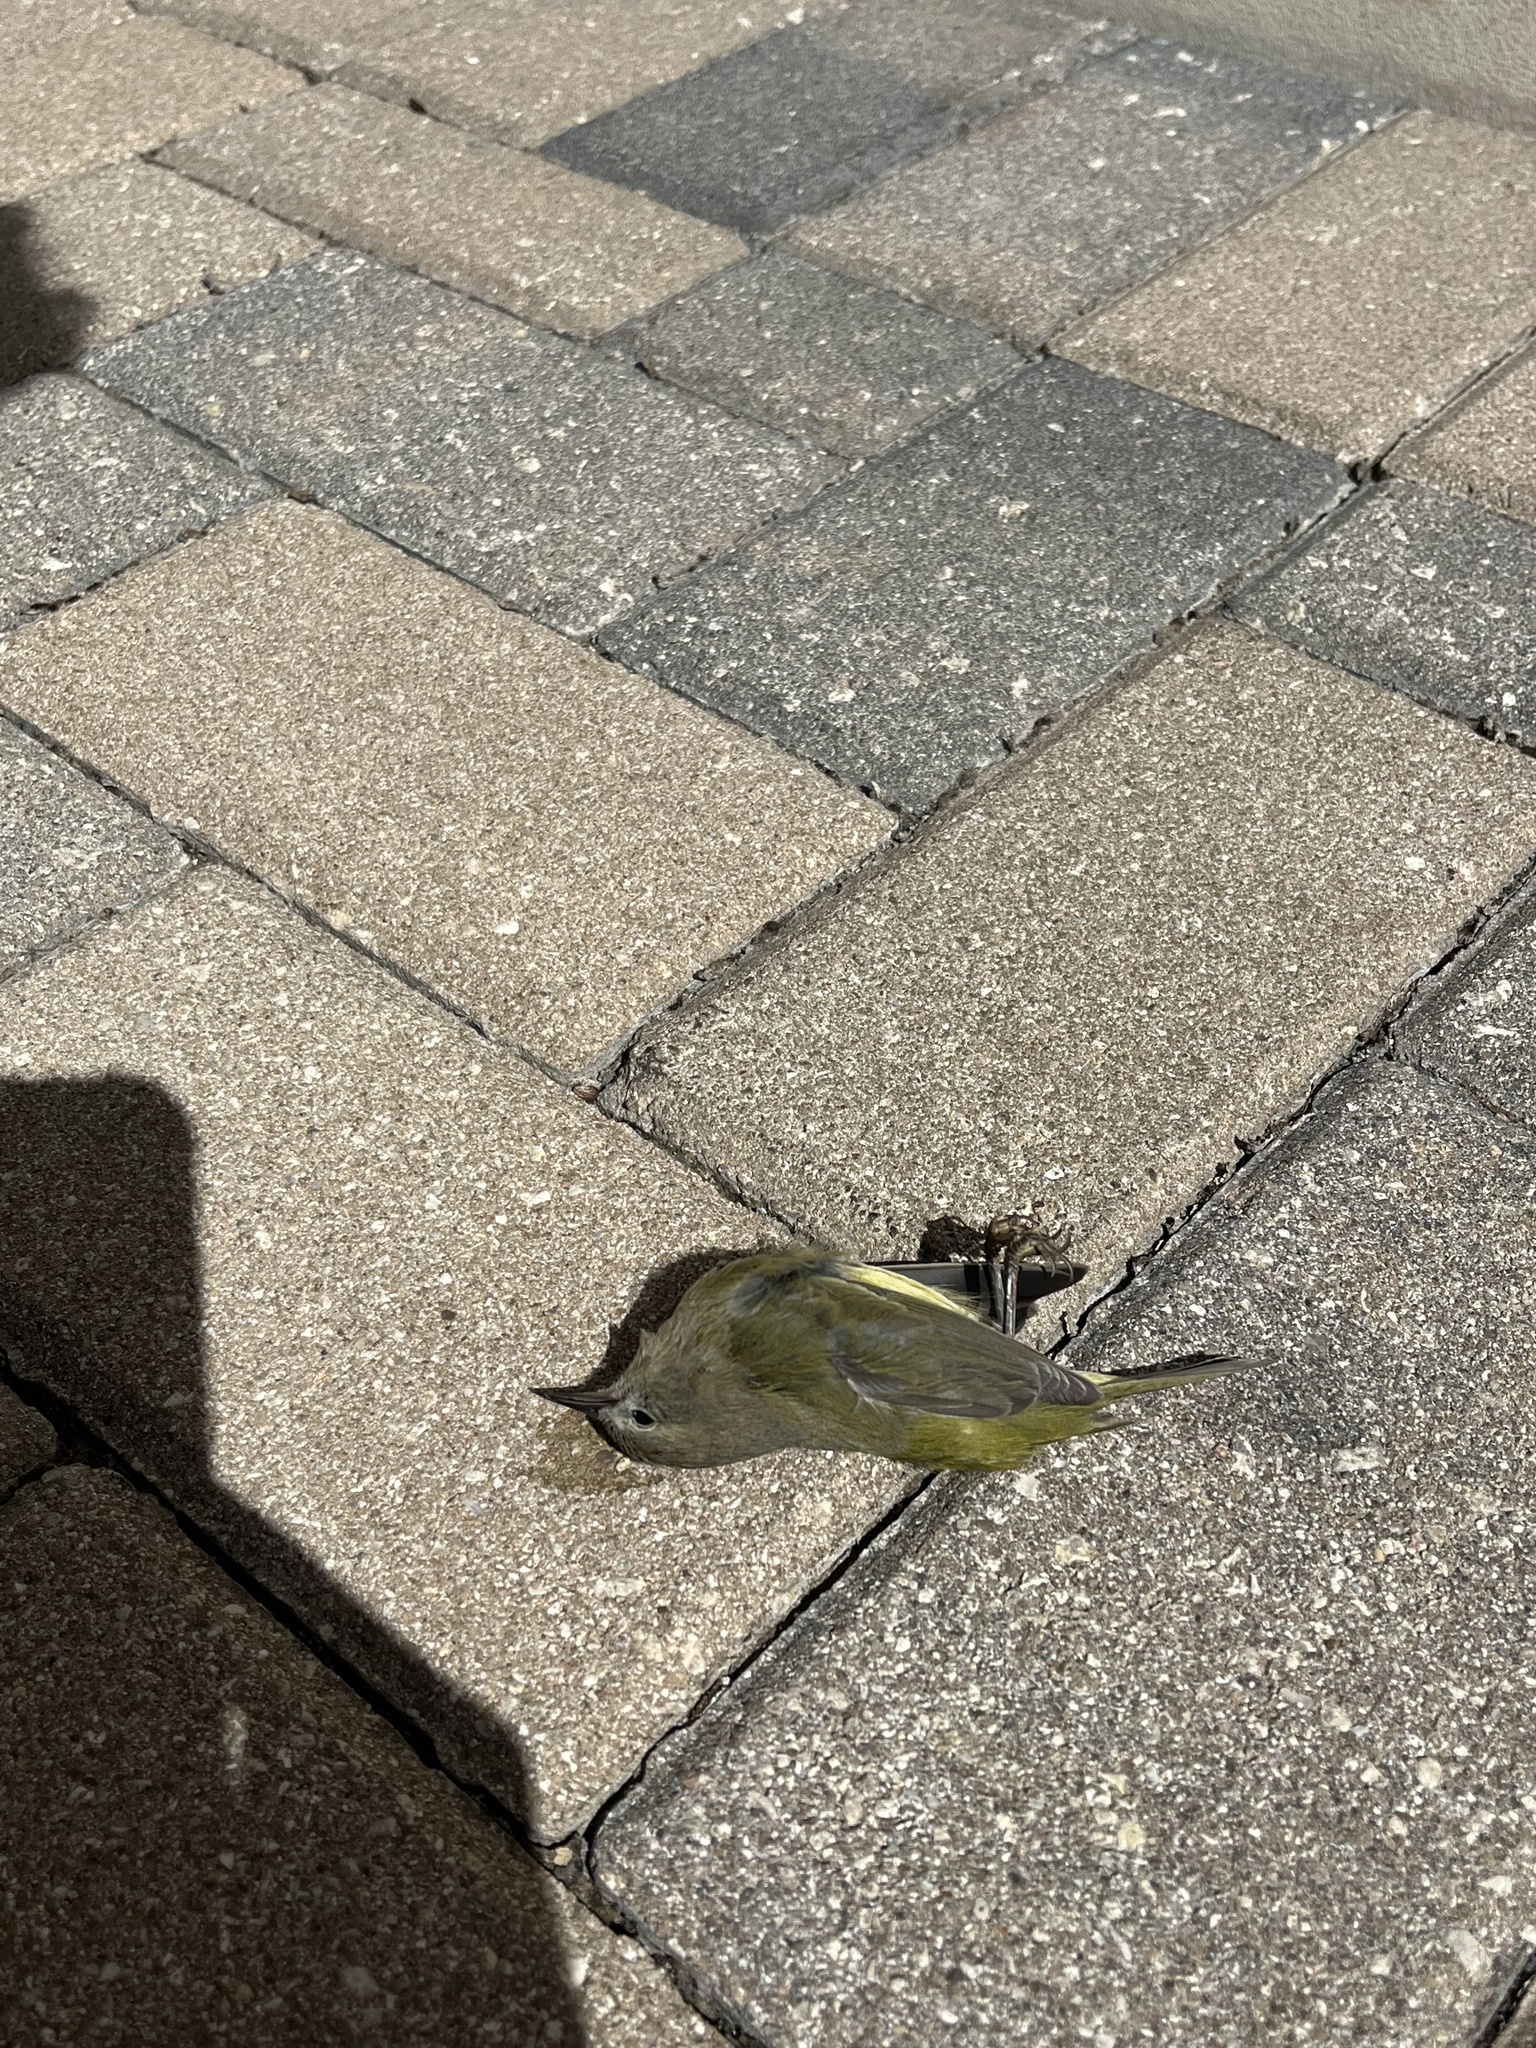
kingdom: Animalia
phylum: Chordata
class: Aves
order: Passeriformes
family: Parulidae
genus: Leiothlypis
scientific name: Leiothlypis celata
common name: Orange-crowned warbler
